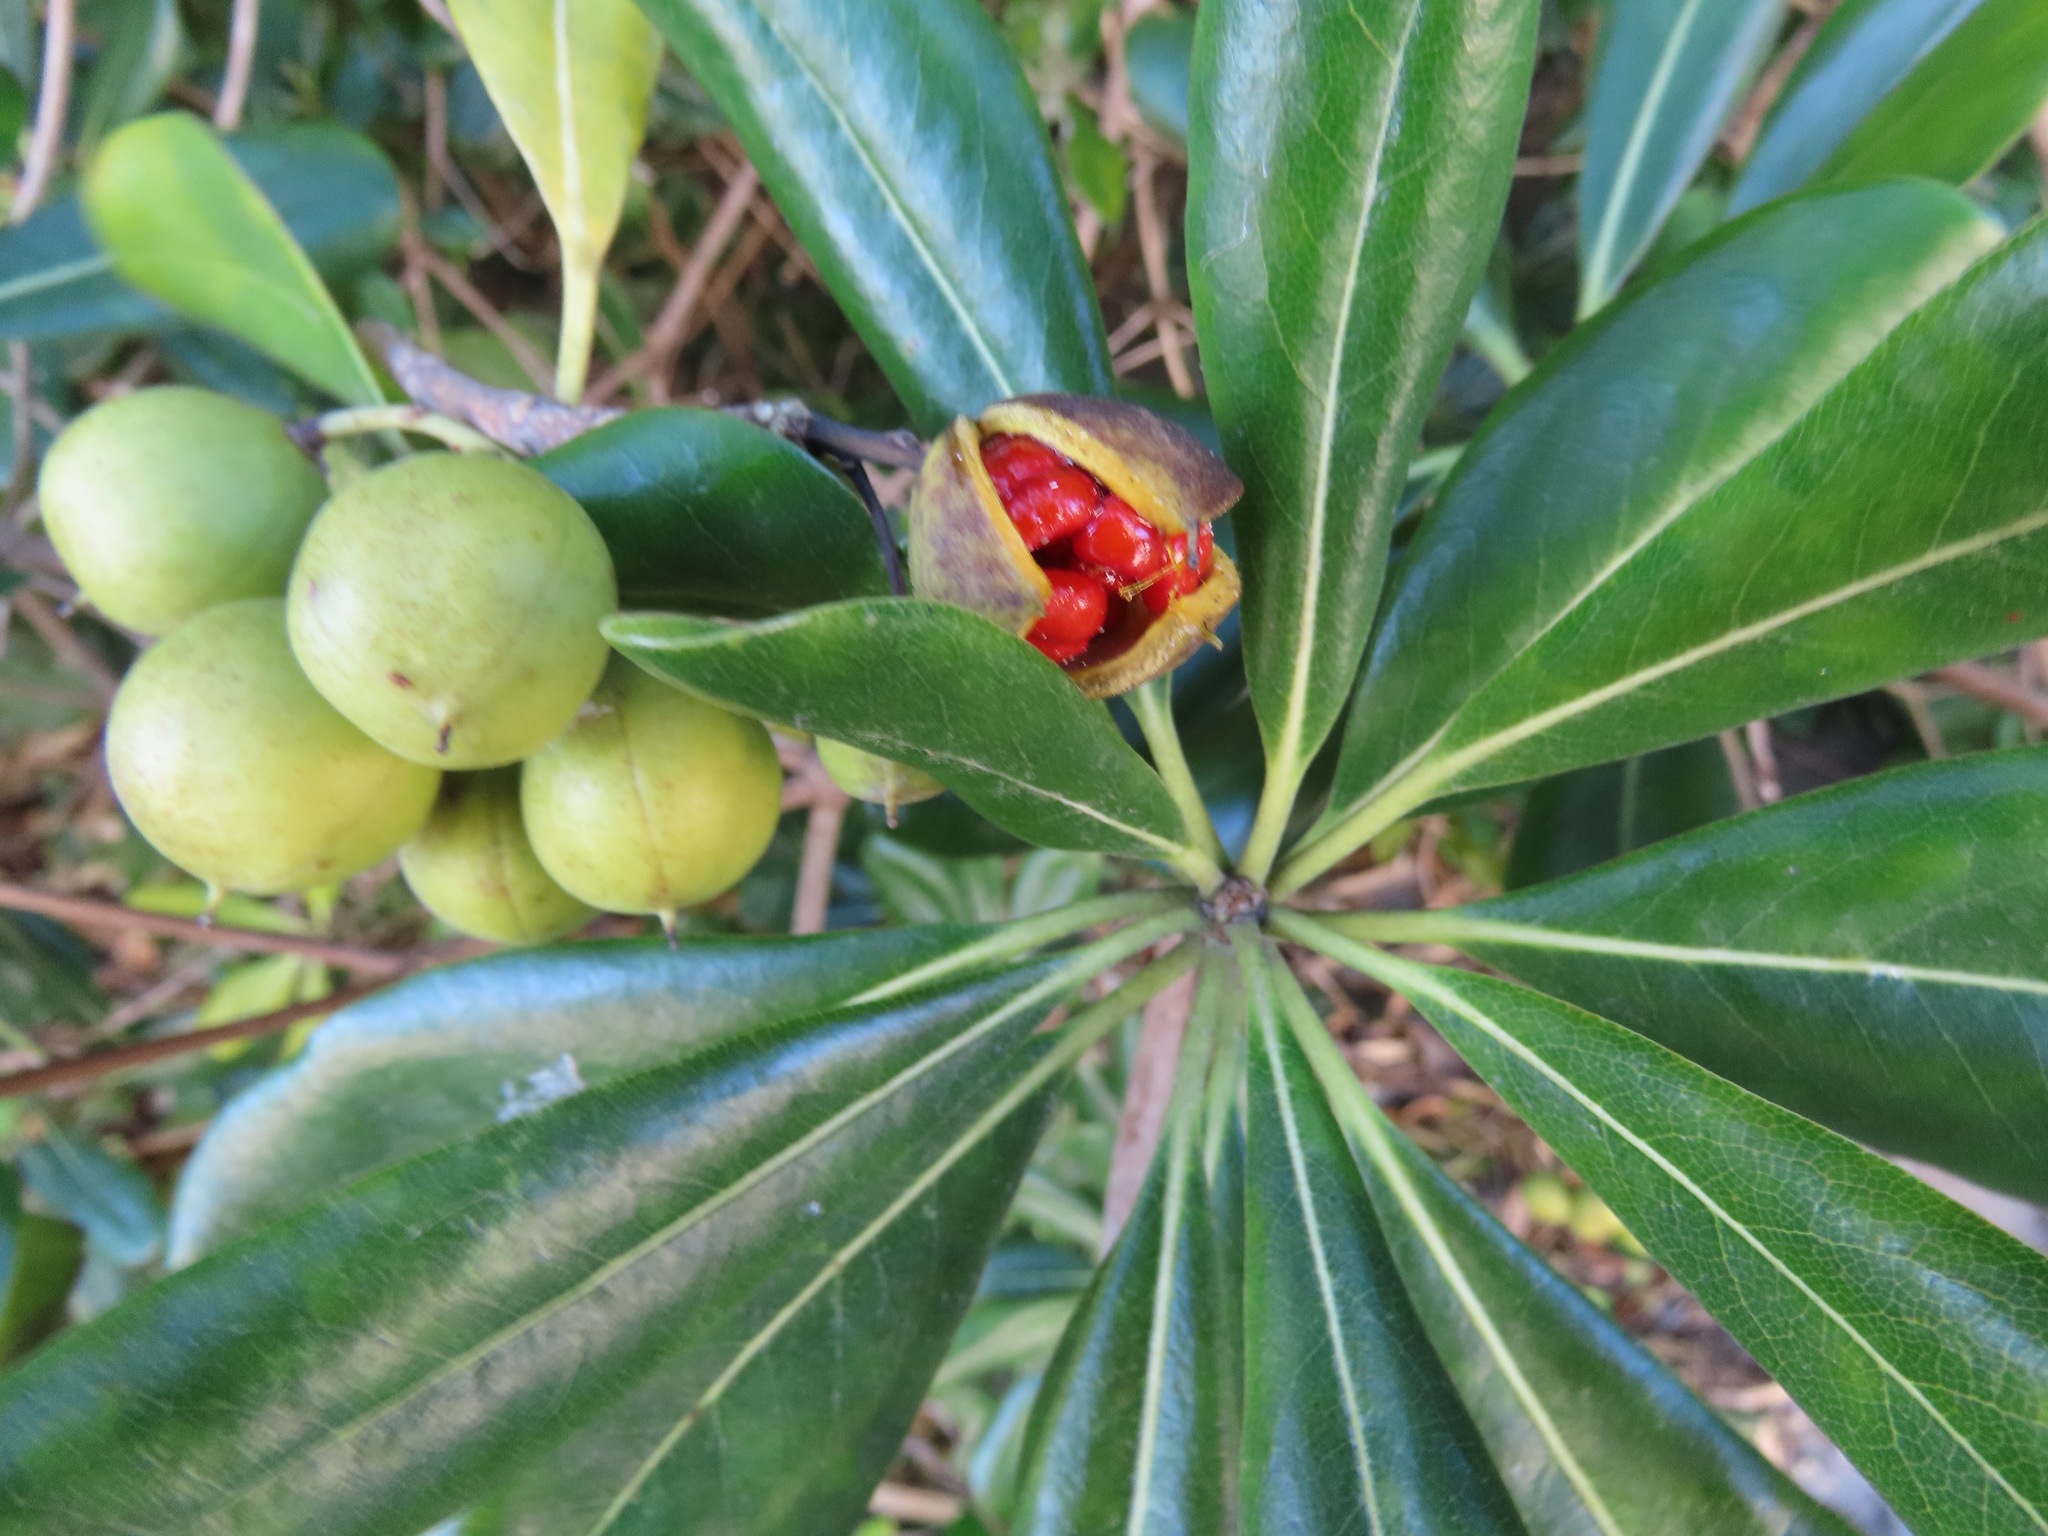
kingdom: Plantae
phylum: Tracheophyta
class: Magnoliopsida
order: Apiales
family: Pittosporaceae
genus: Pittosporum
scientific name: Pittosporum tobira
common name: Japanese cheesewood
